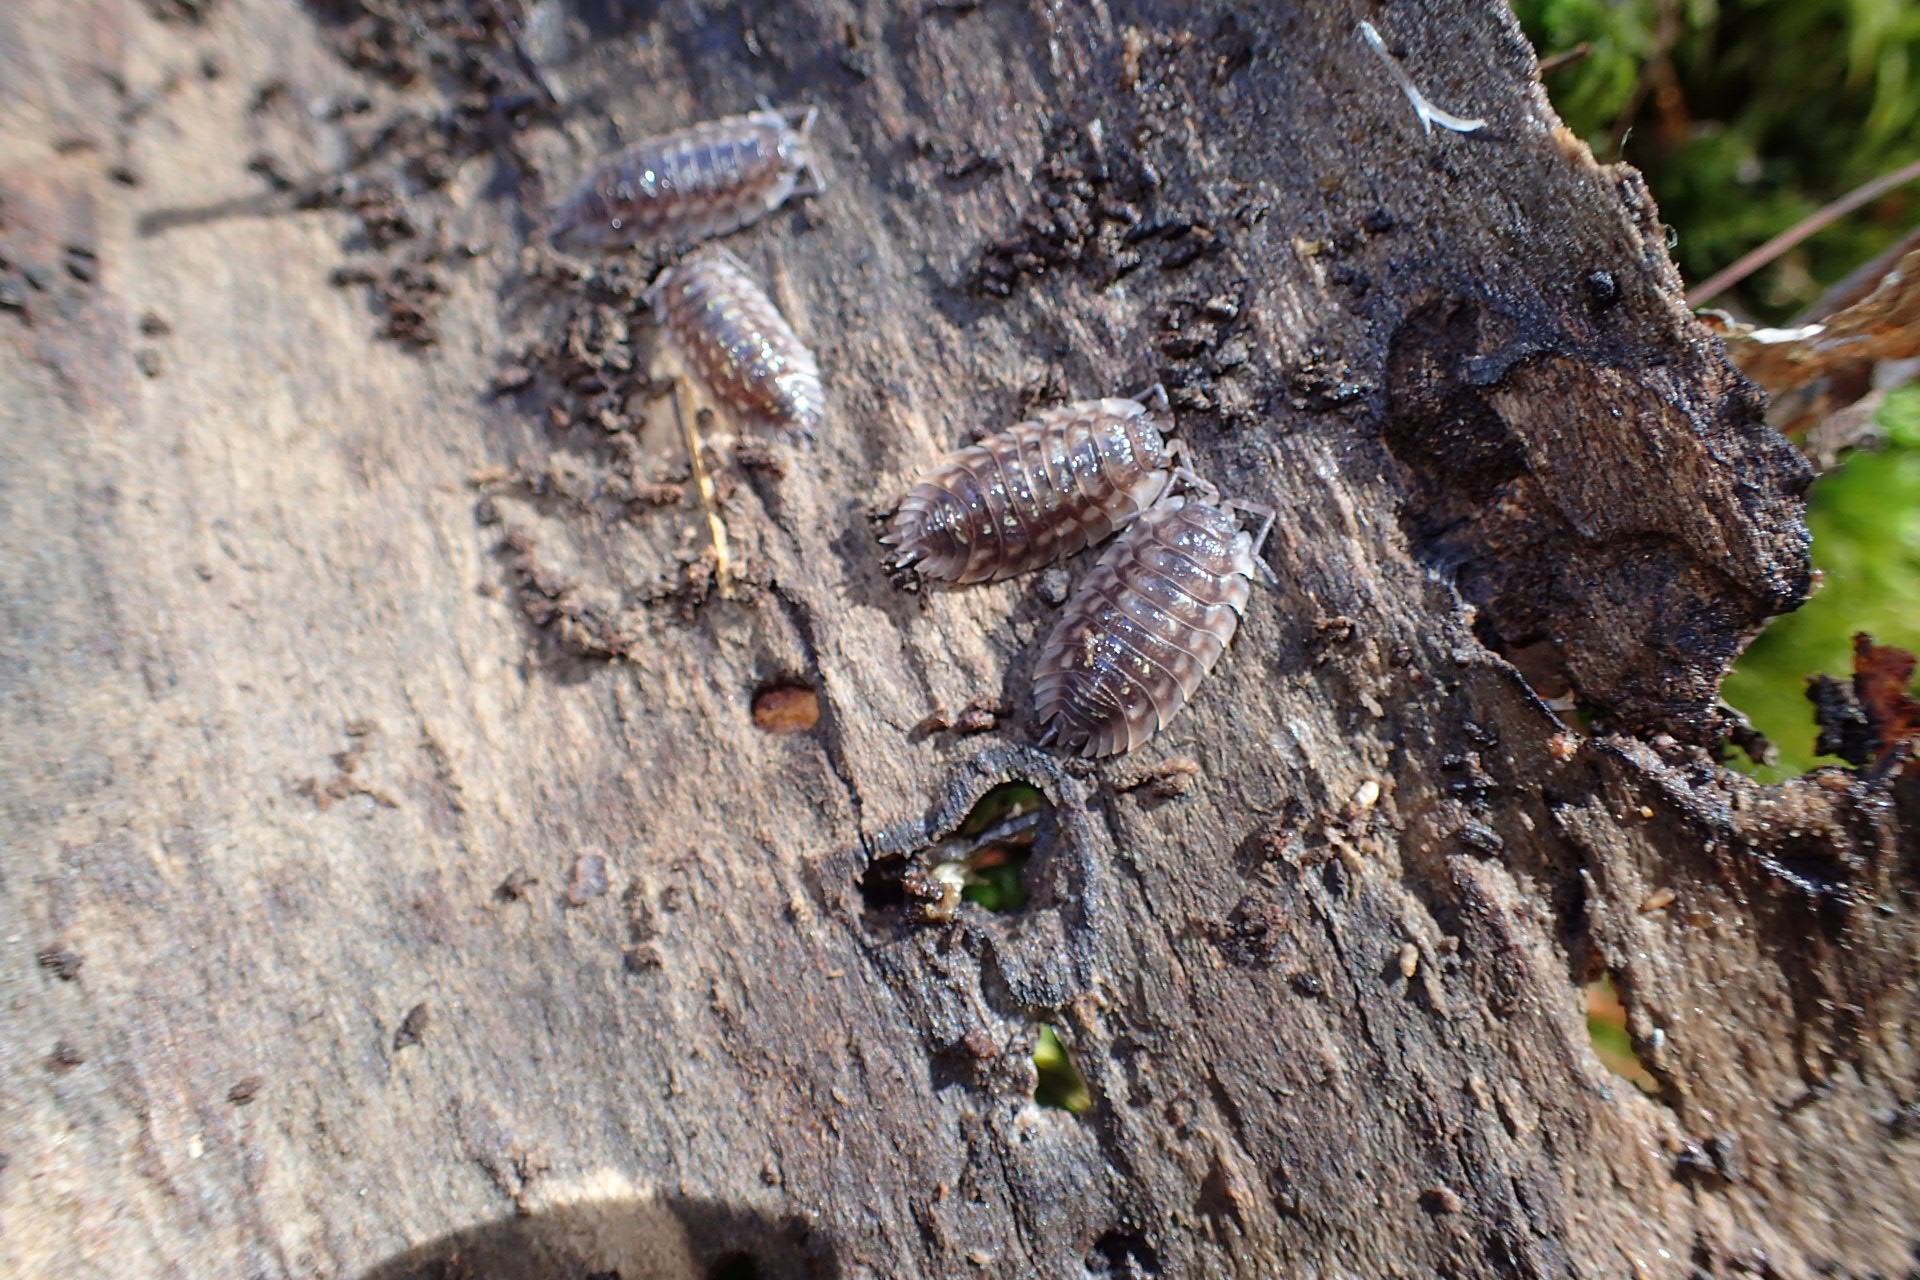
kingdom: Animalia
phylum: Arthropoda
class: Malacostraca
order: Isopoda
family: Oniscidae
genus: Oniscus
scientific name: Oniscus asellus
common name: Common shiny woodlouse
